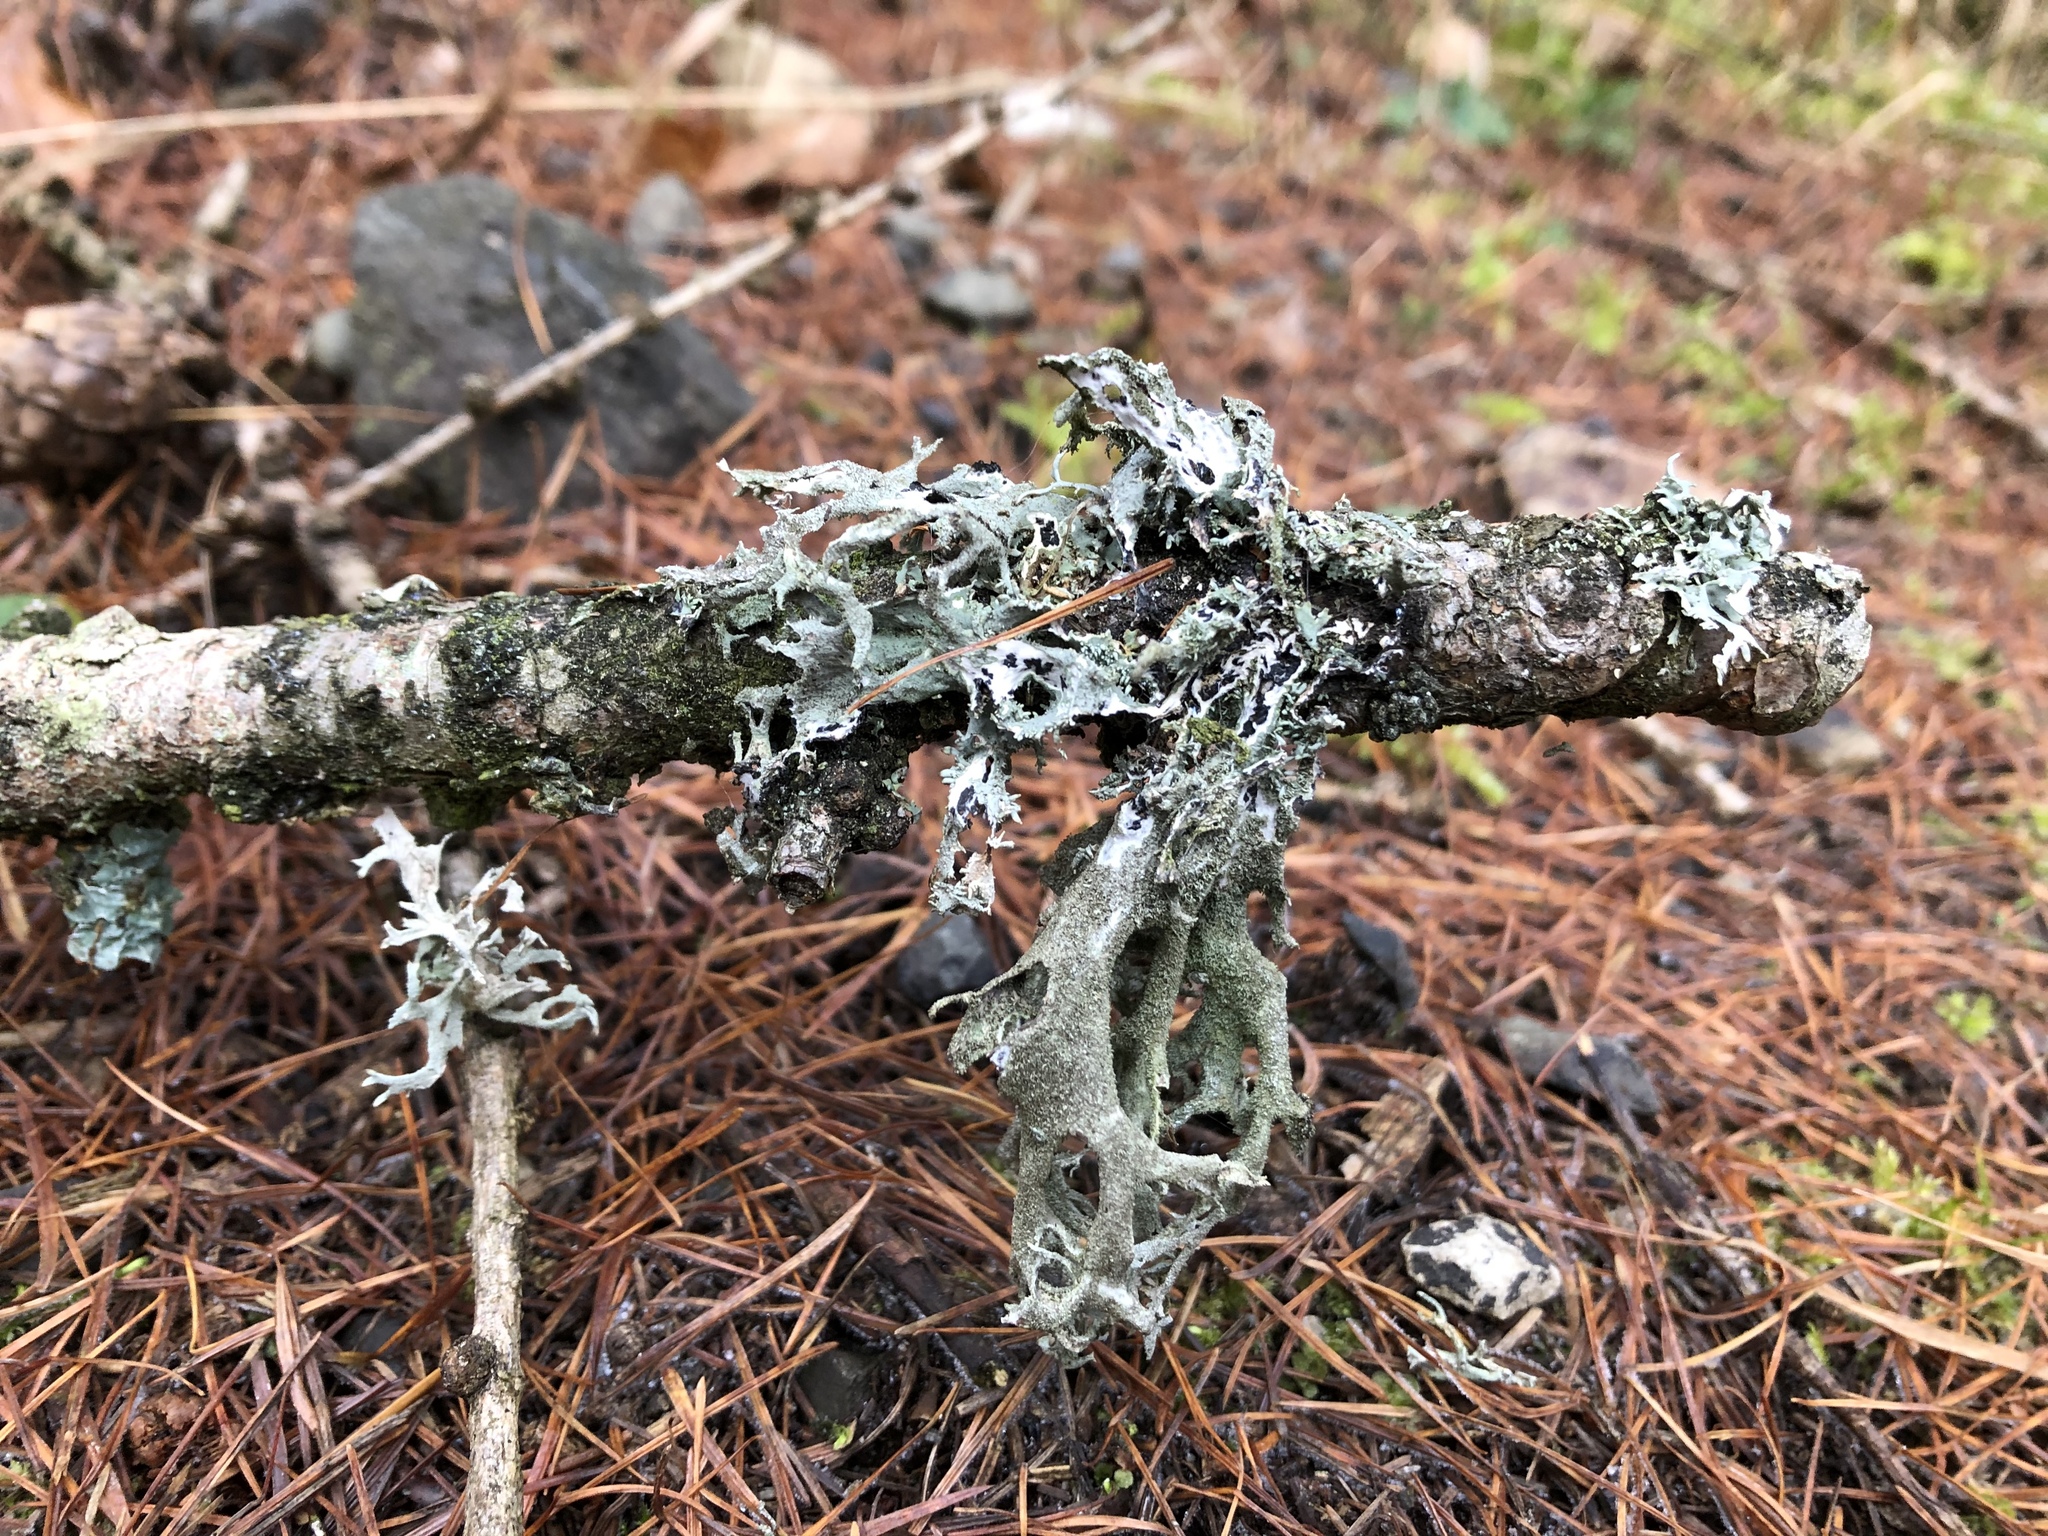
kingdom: Fungi
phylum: Ascomycota
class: Lecanoromycetes
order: Lecanorales
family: Parmeliaceae
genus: Pseudevernia
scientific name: Pseudevernia furfuracea
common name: Tree moss
